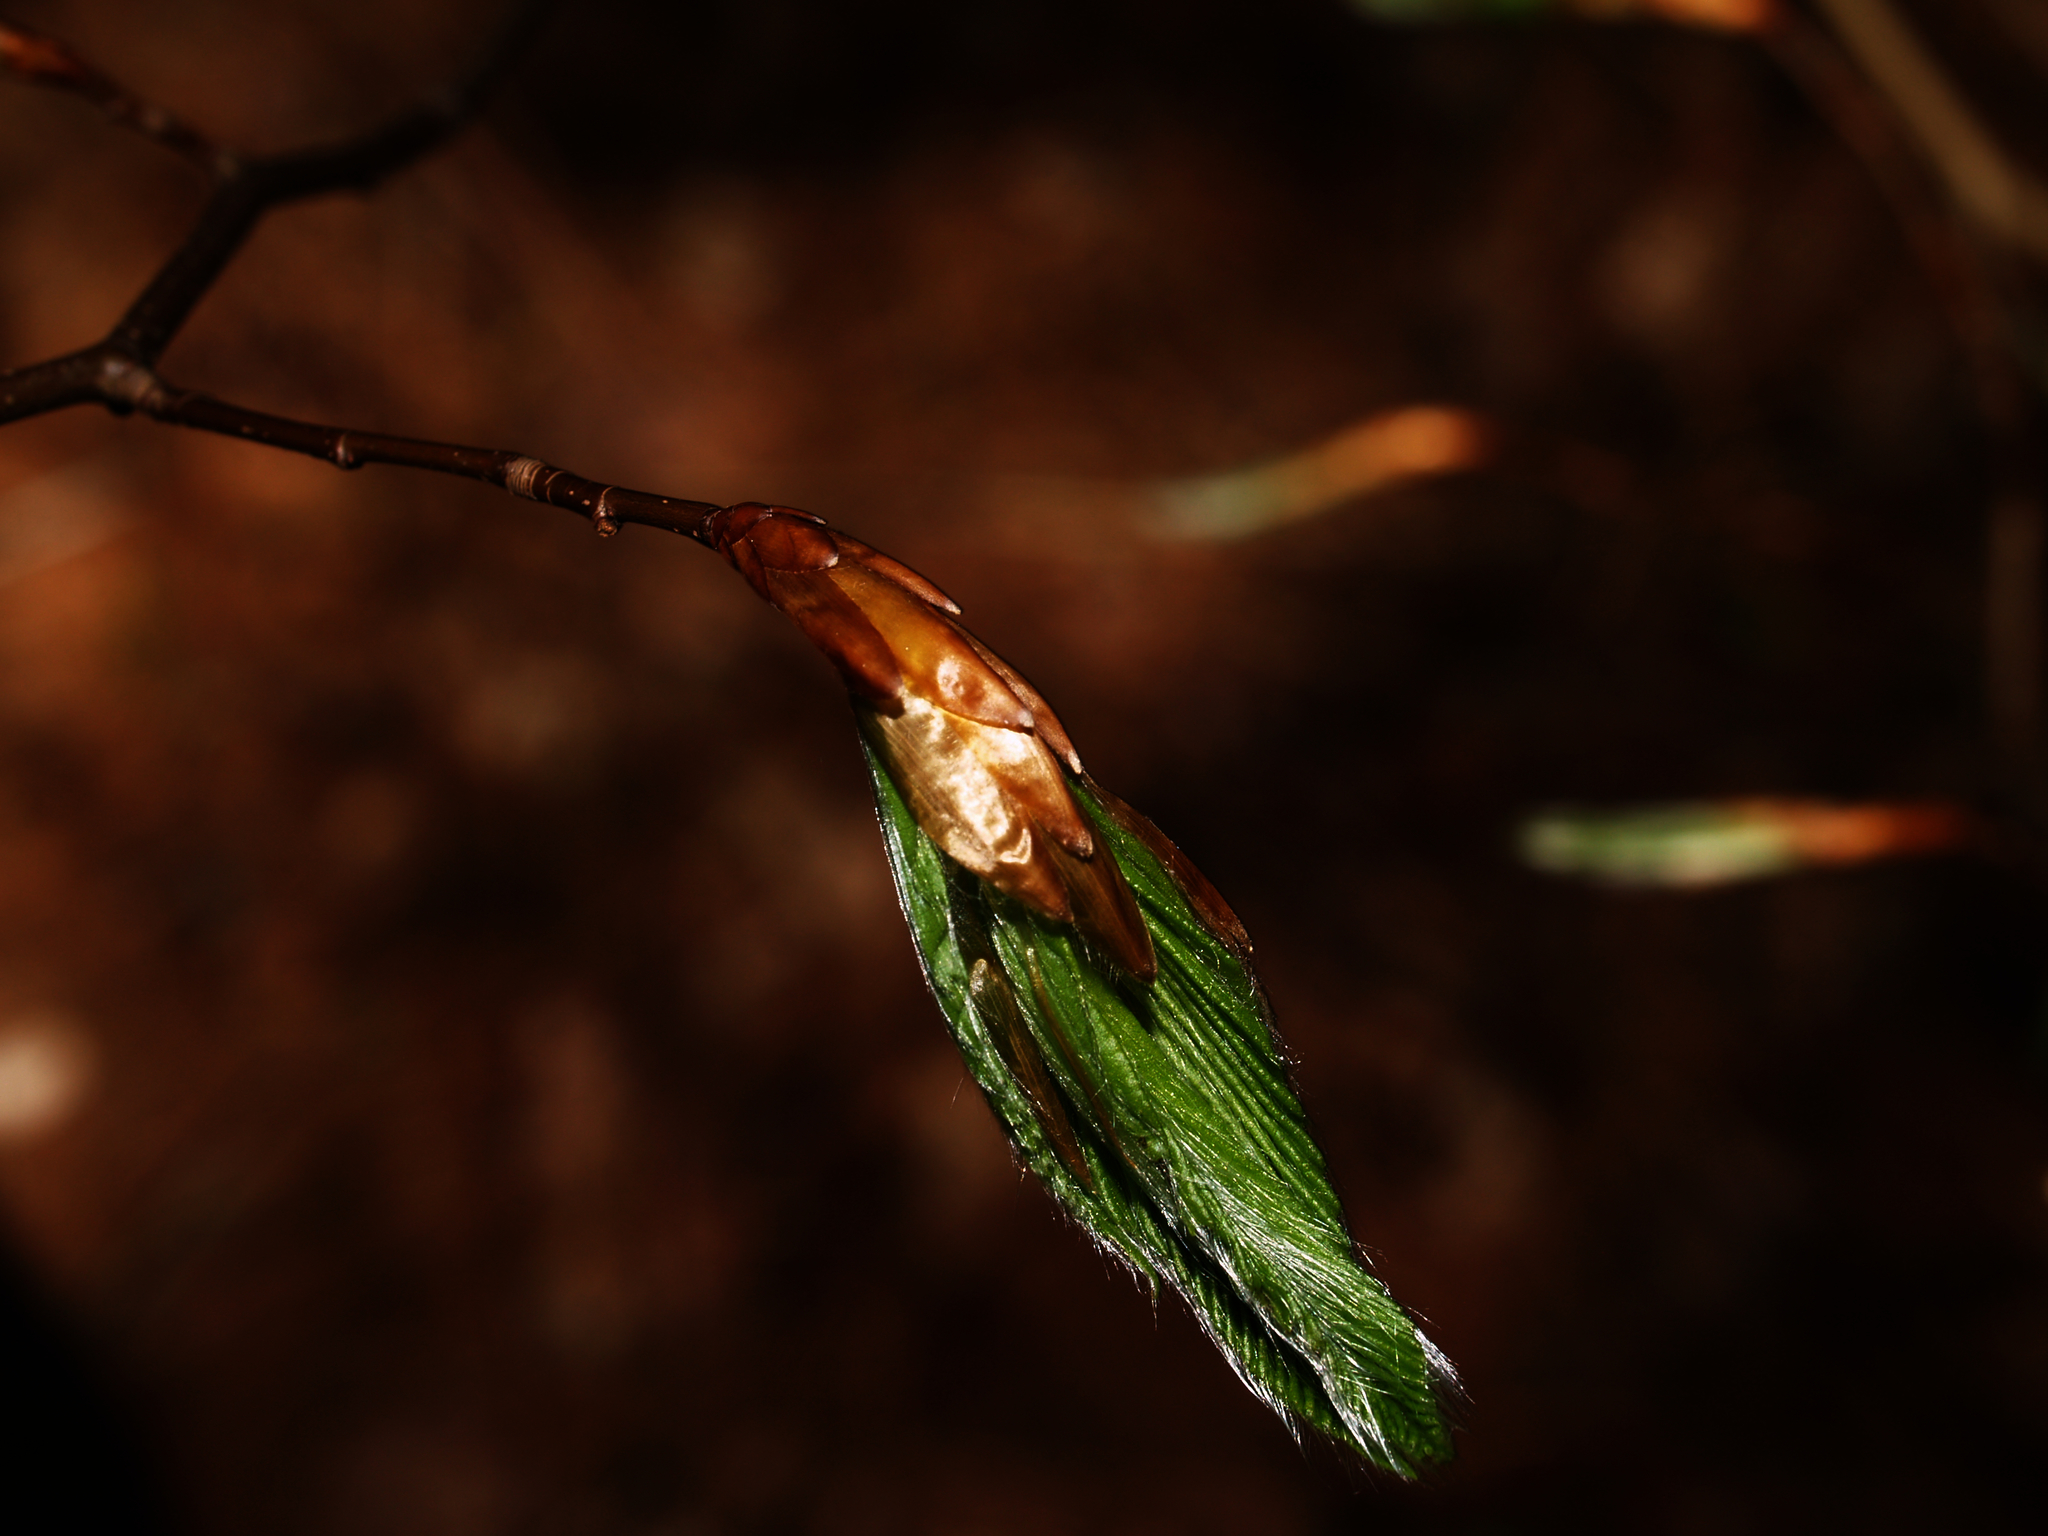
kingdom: Plantae
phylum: Tracheophyta
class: Magnoliopsida
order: Fagales
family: Fagaceae
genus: Fagus
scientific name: Fagus grandifolia
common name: American beech
